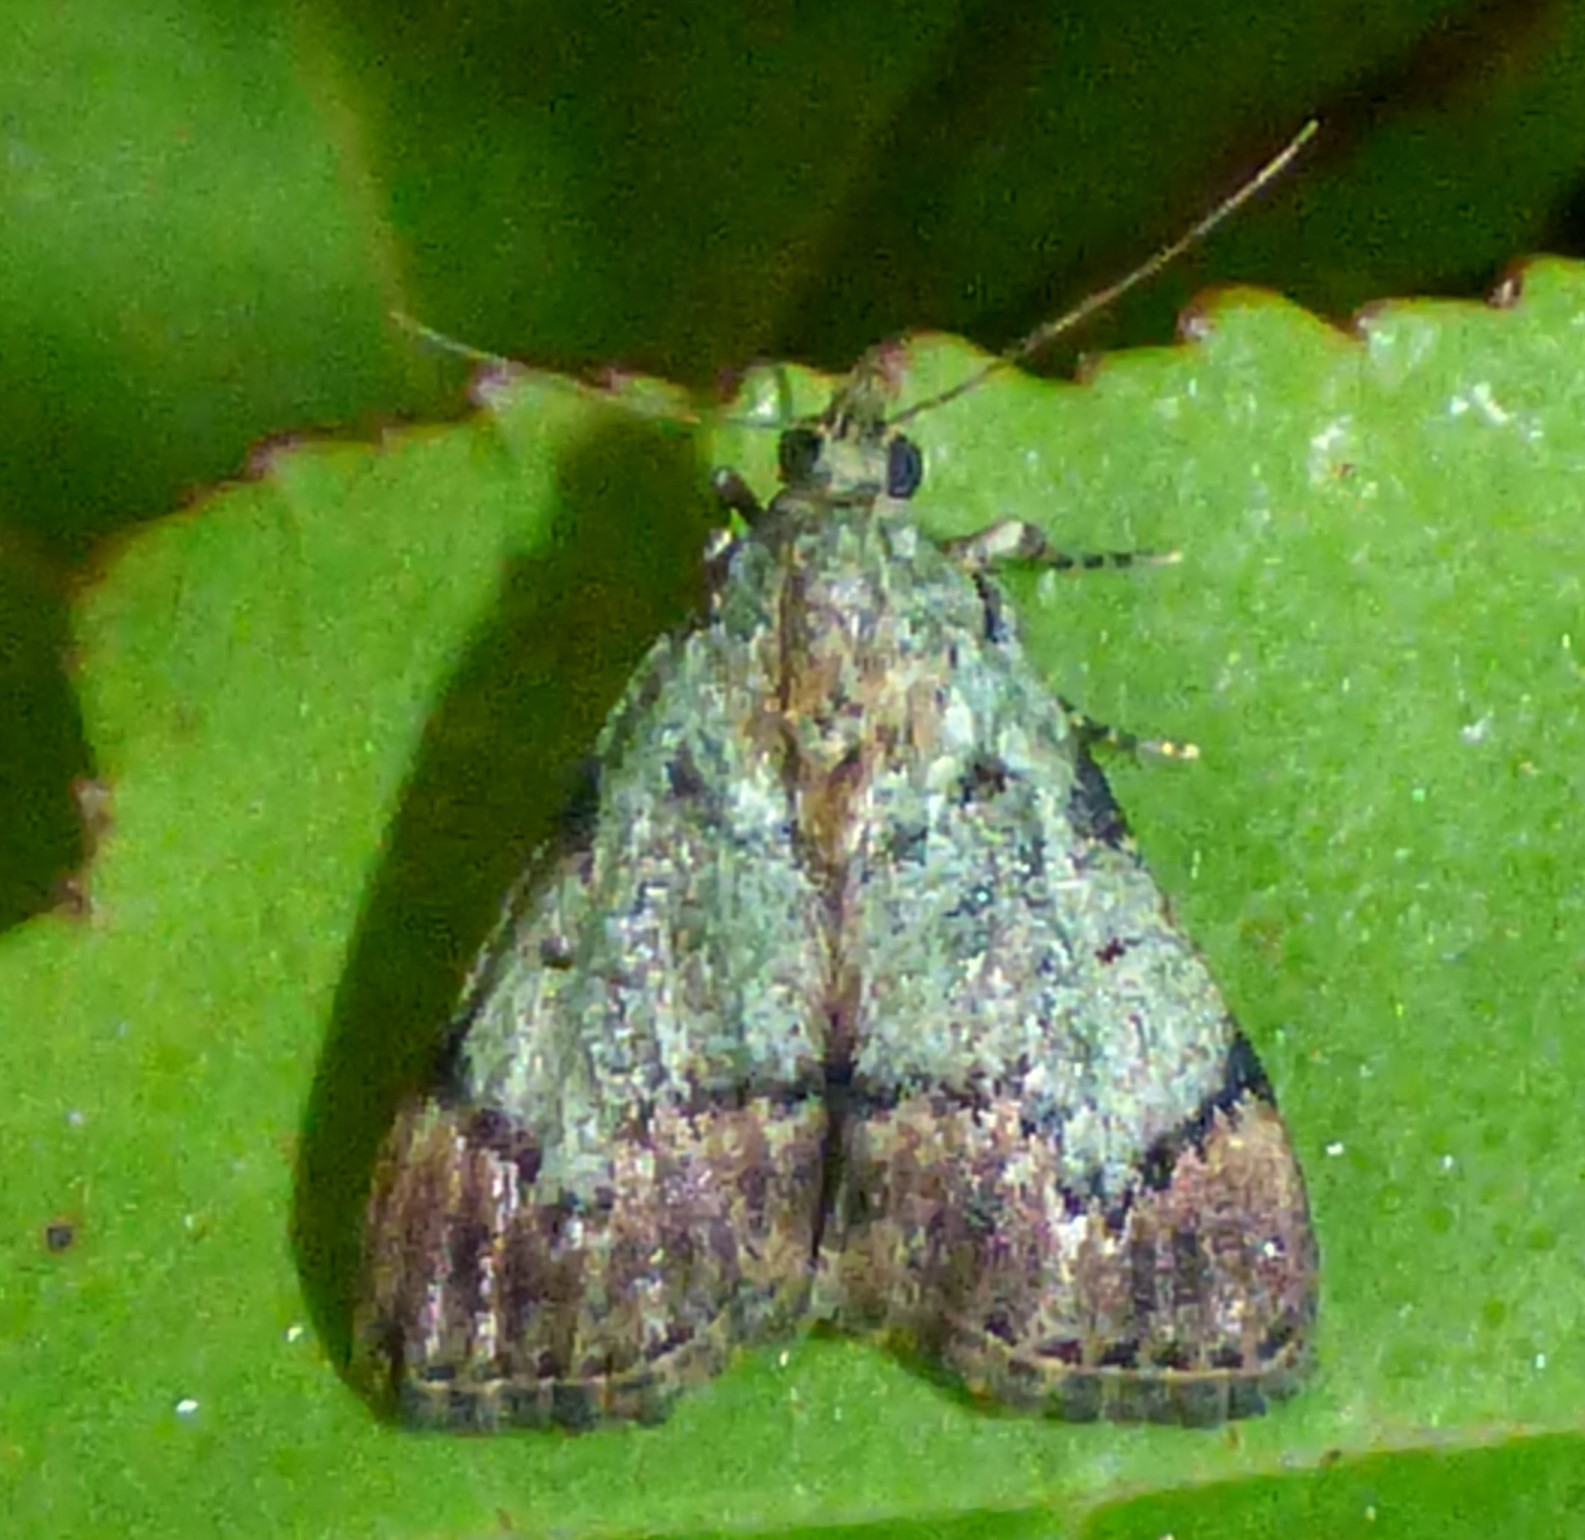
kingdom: Animalia
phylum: Arthropoda
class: Insecta
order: Lepidoptera
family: Pyralidae
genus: Epipaschia
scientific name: Epipaschia superatalis
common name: Dimorphic macalla moth
